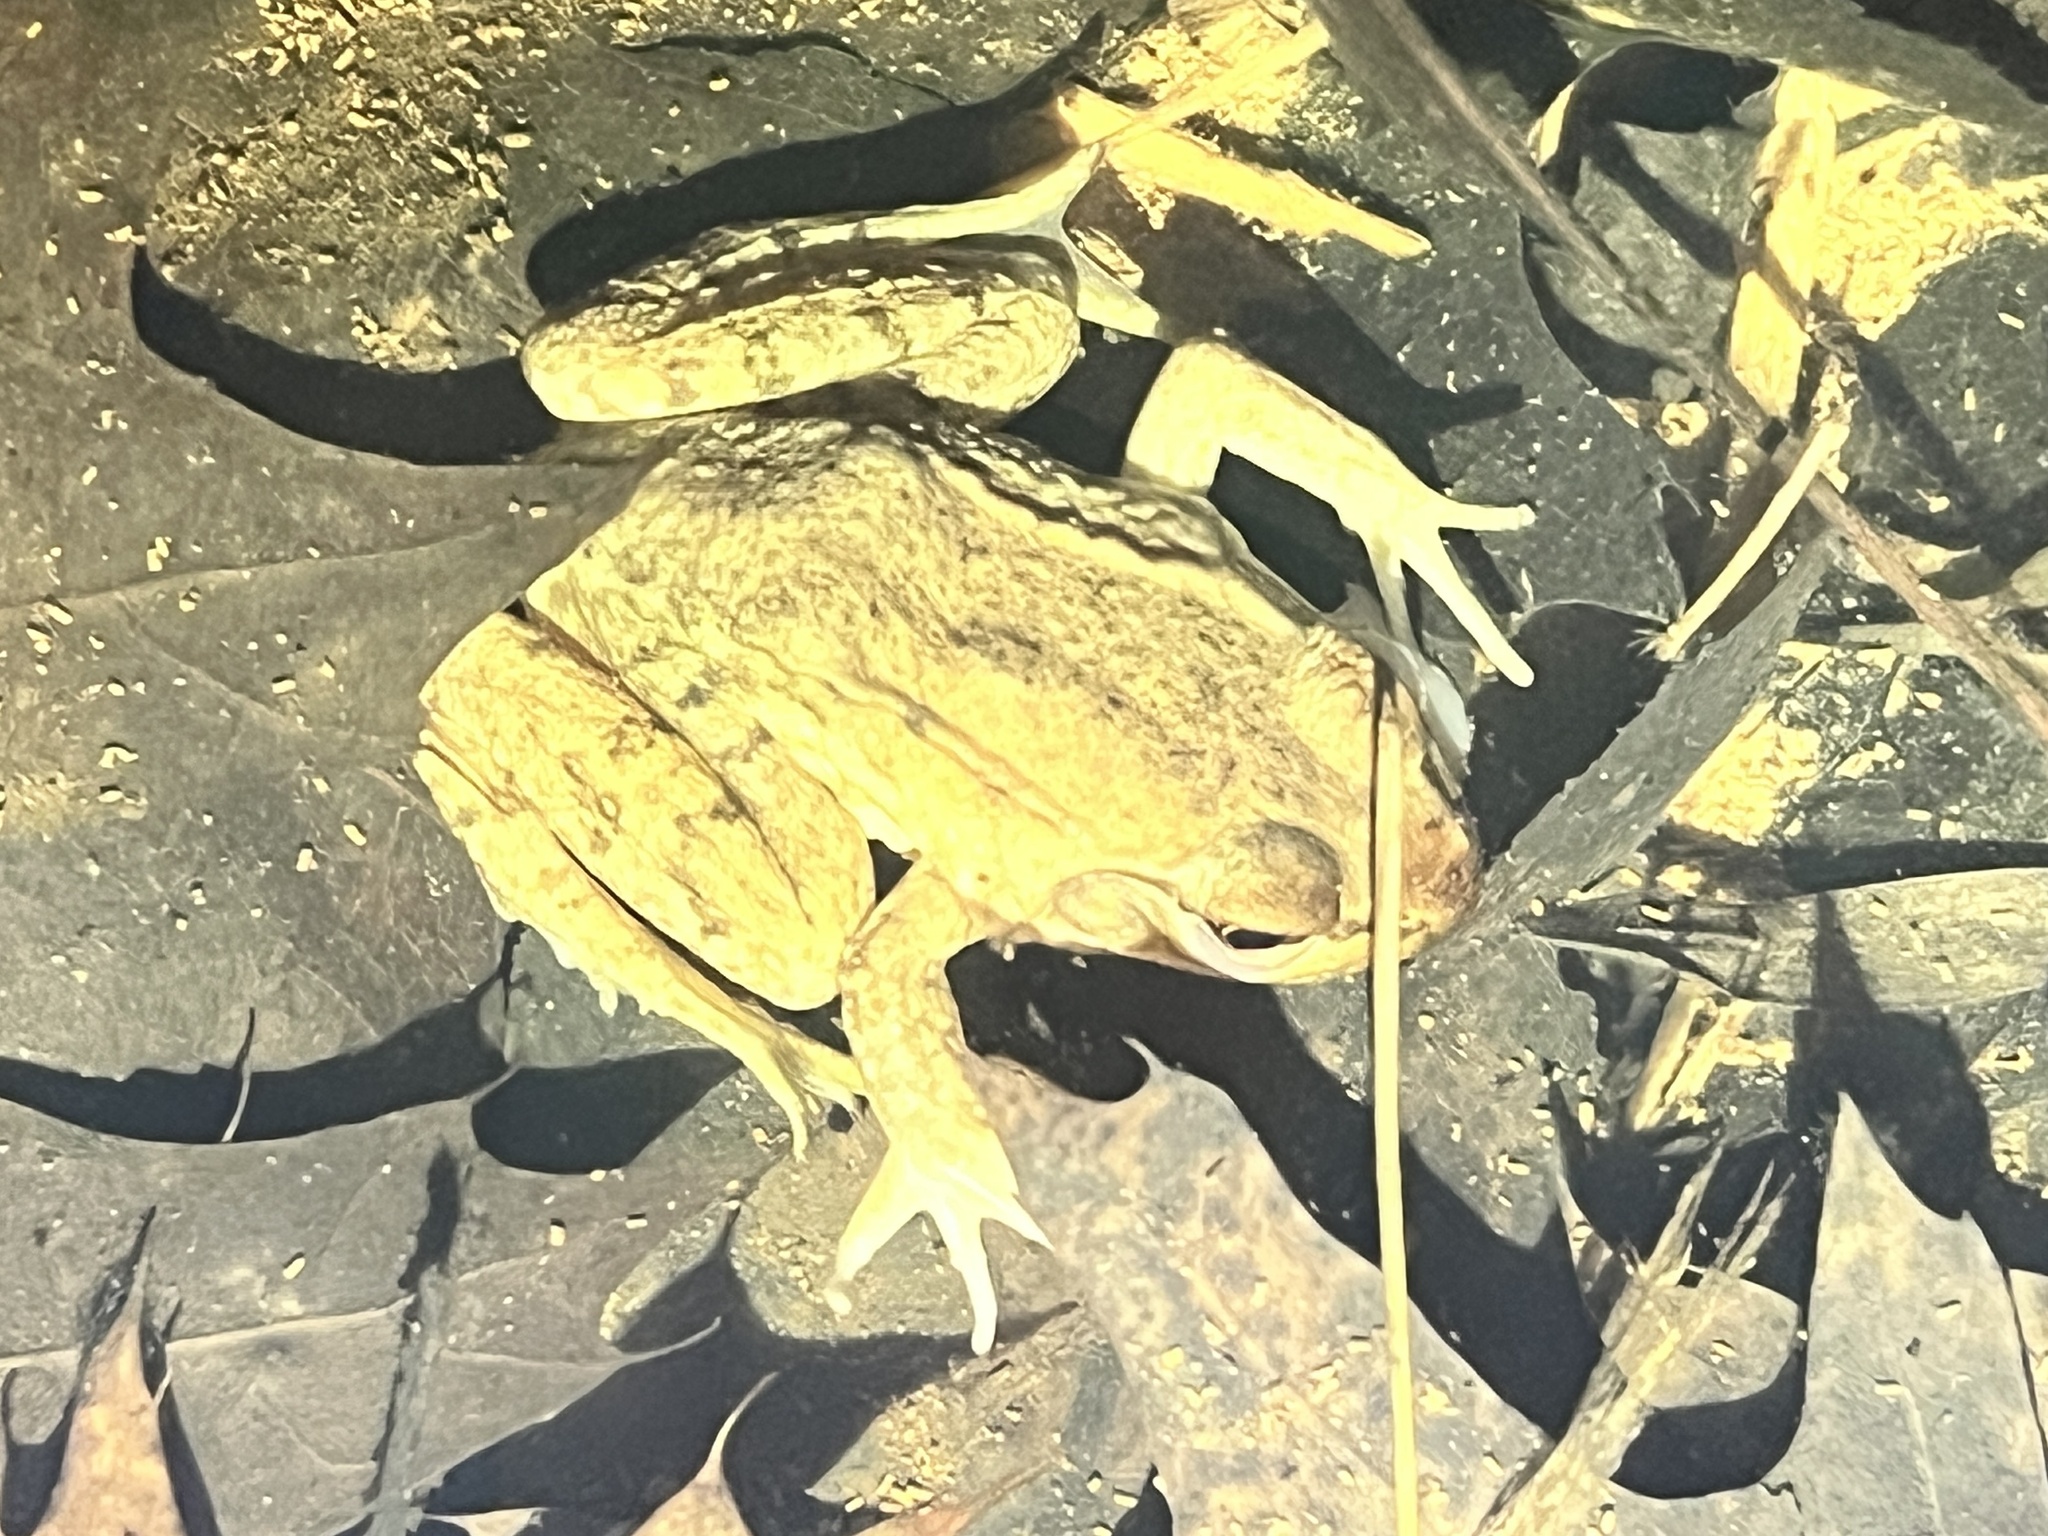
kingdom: Animalia
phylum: Chordata
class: Amphibia
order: Anura
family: Ranidae
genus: Lithobates
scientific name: Lithobates clamitans
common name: Green frog
